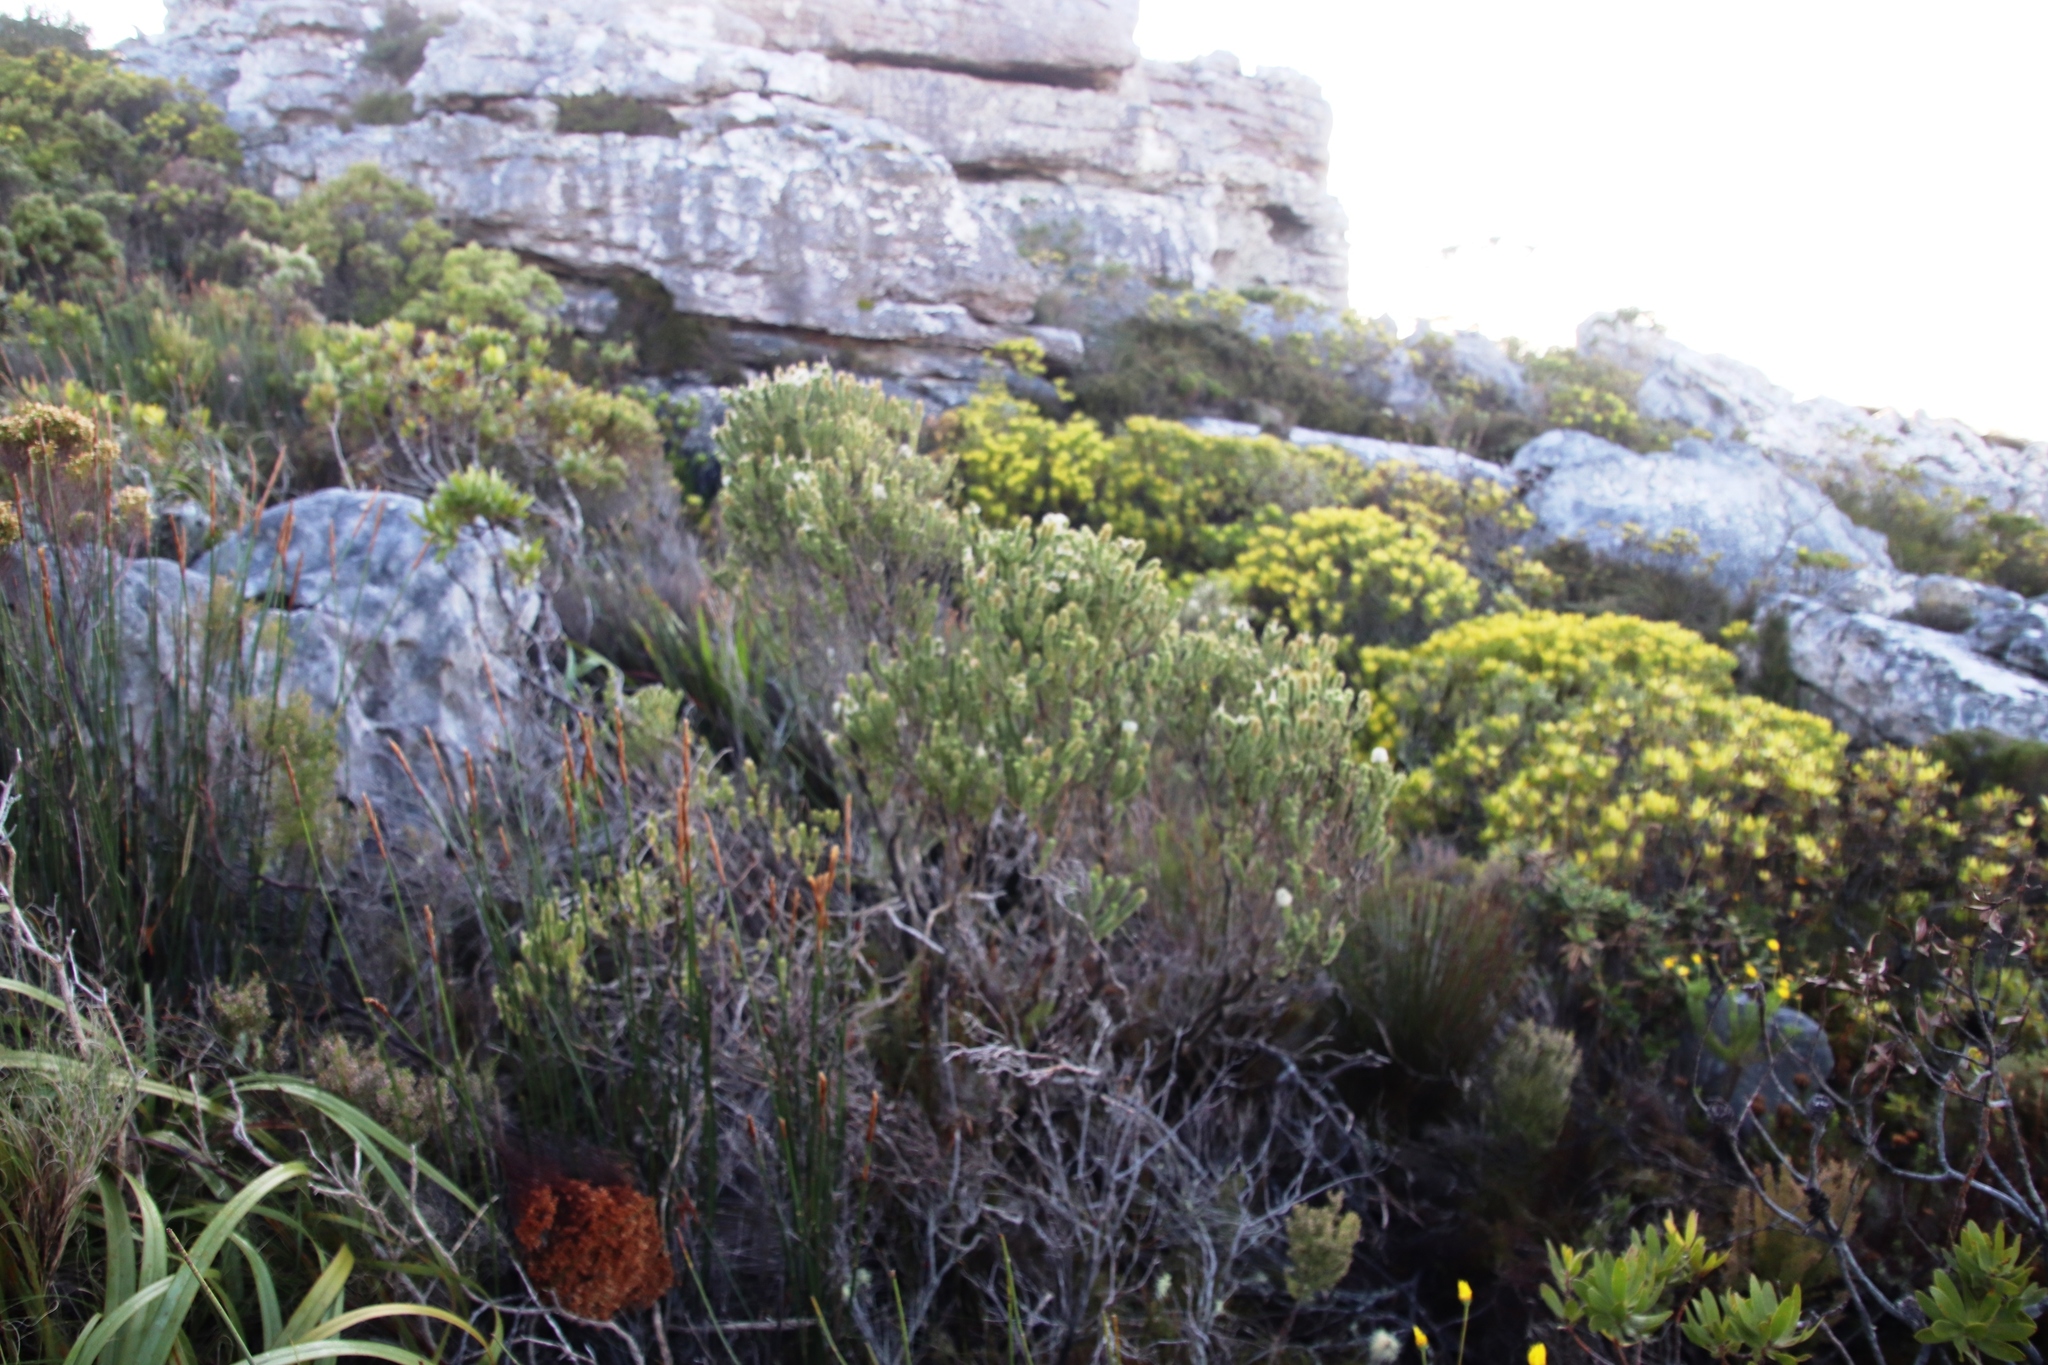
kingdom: Plantae
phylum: Tracheophyta
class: Magnoliopsida
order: Lamiales
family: Stilbaceae
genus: Stilbe
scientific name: Stilbe vestita
